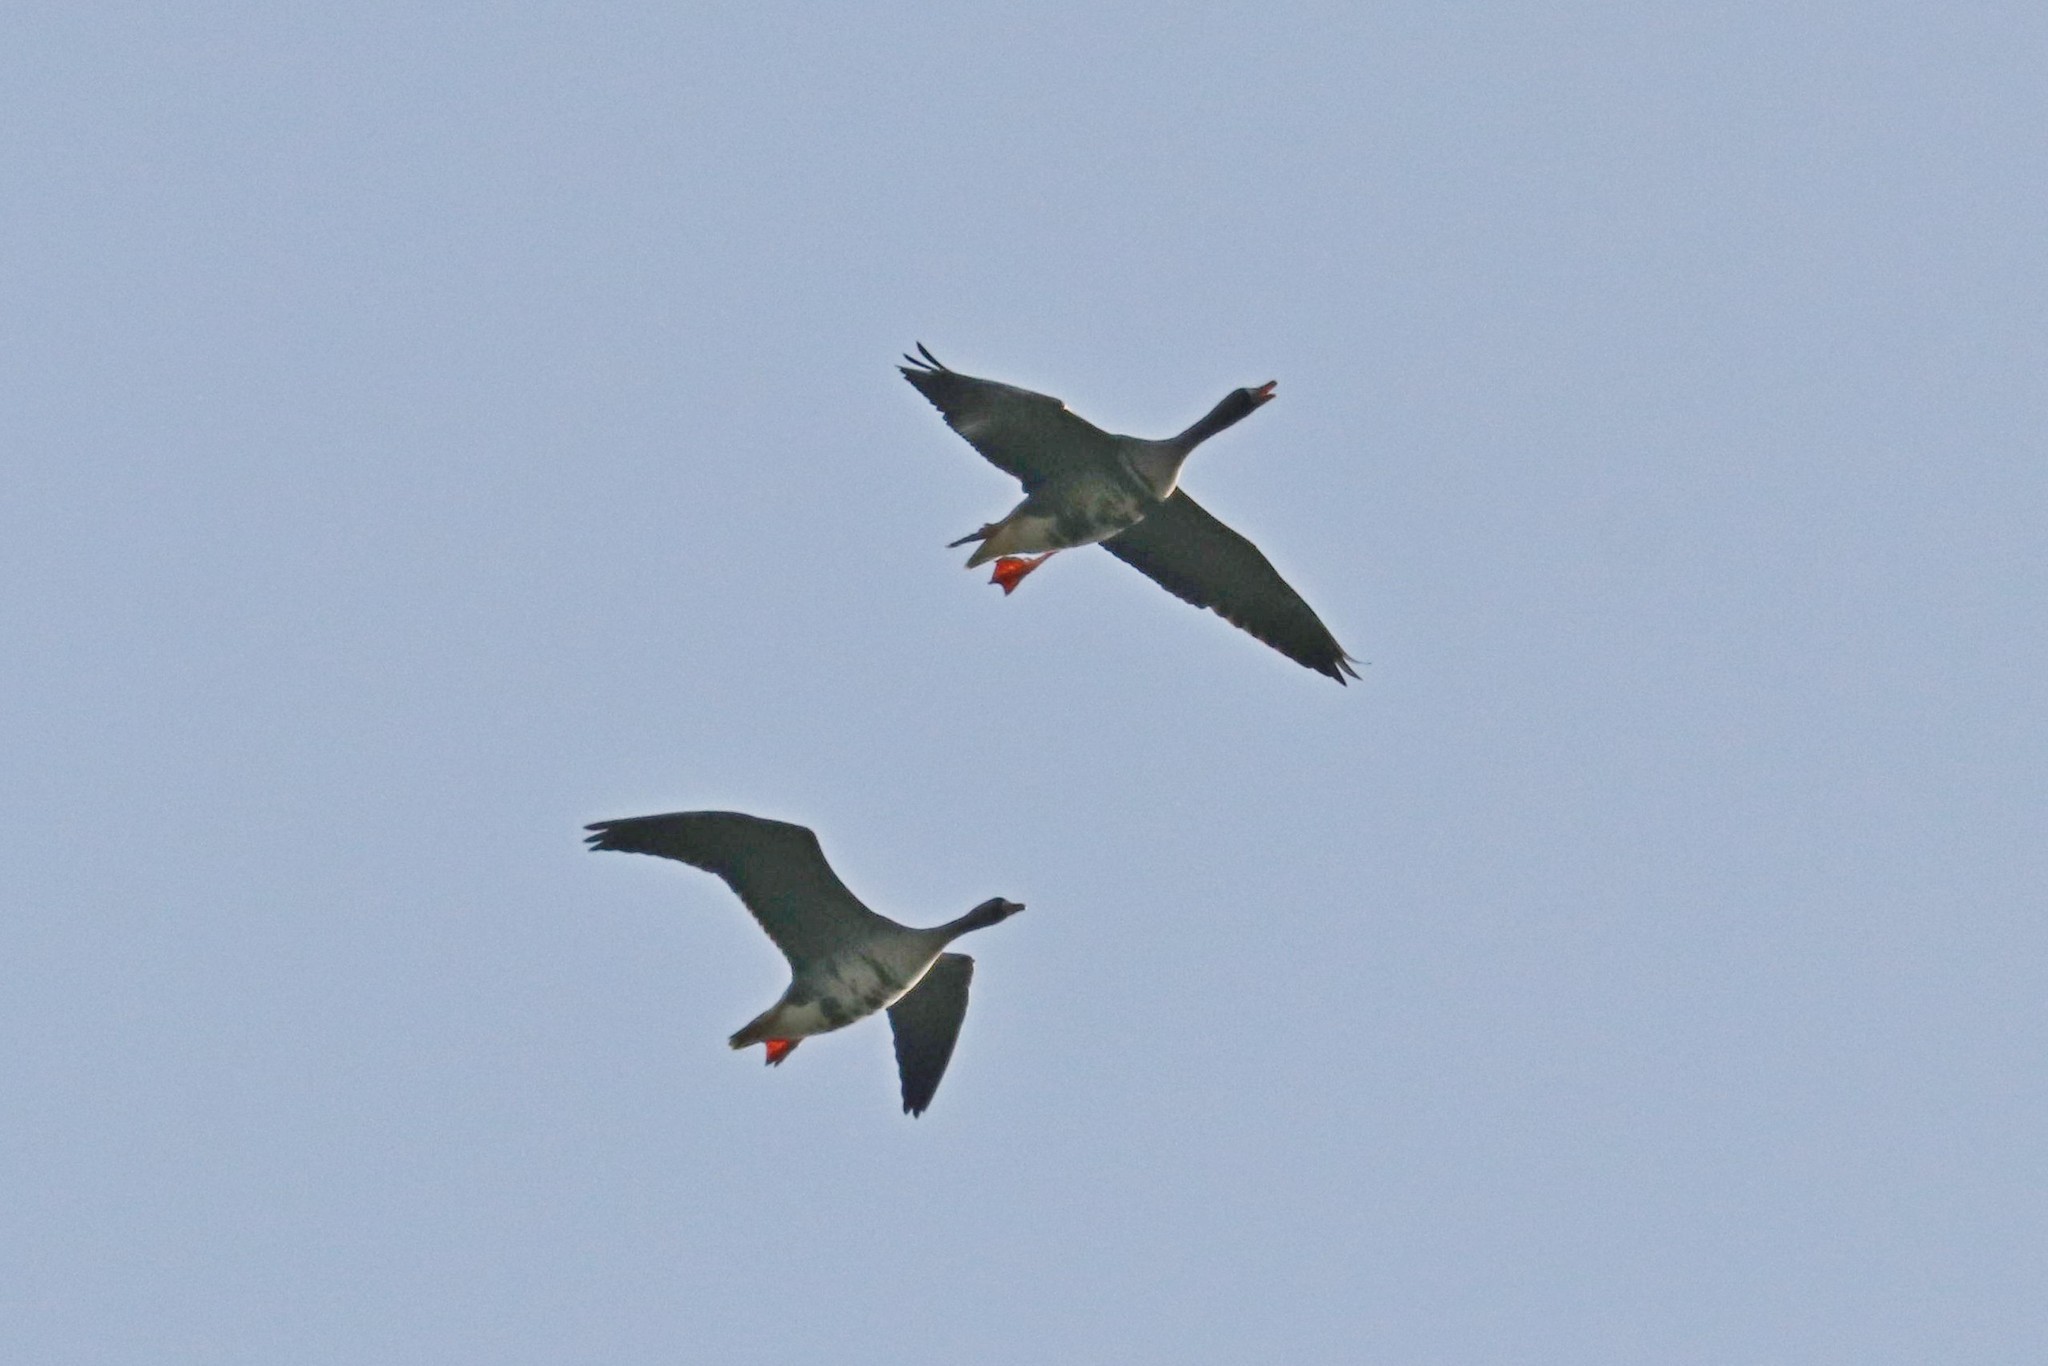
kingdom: Animalia
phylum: Chordata
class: Aves
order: Anseriformes
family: Anatidae
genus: Anser
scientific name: Anser albifrons
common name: Greater white-fronted goose
